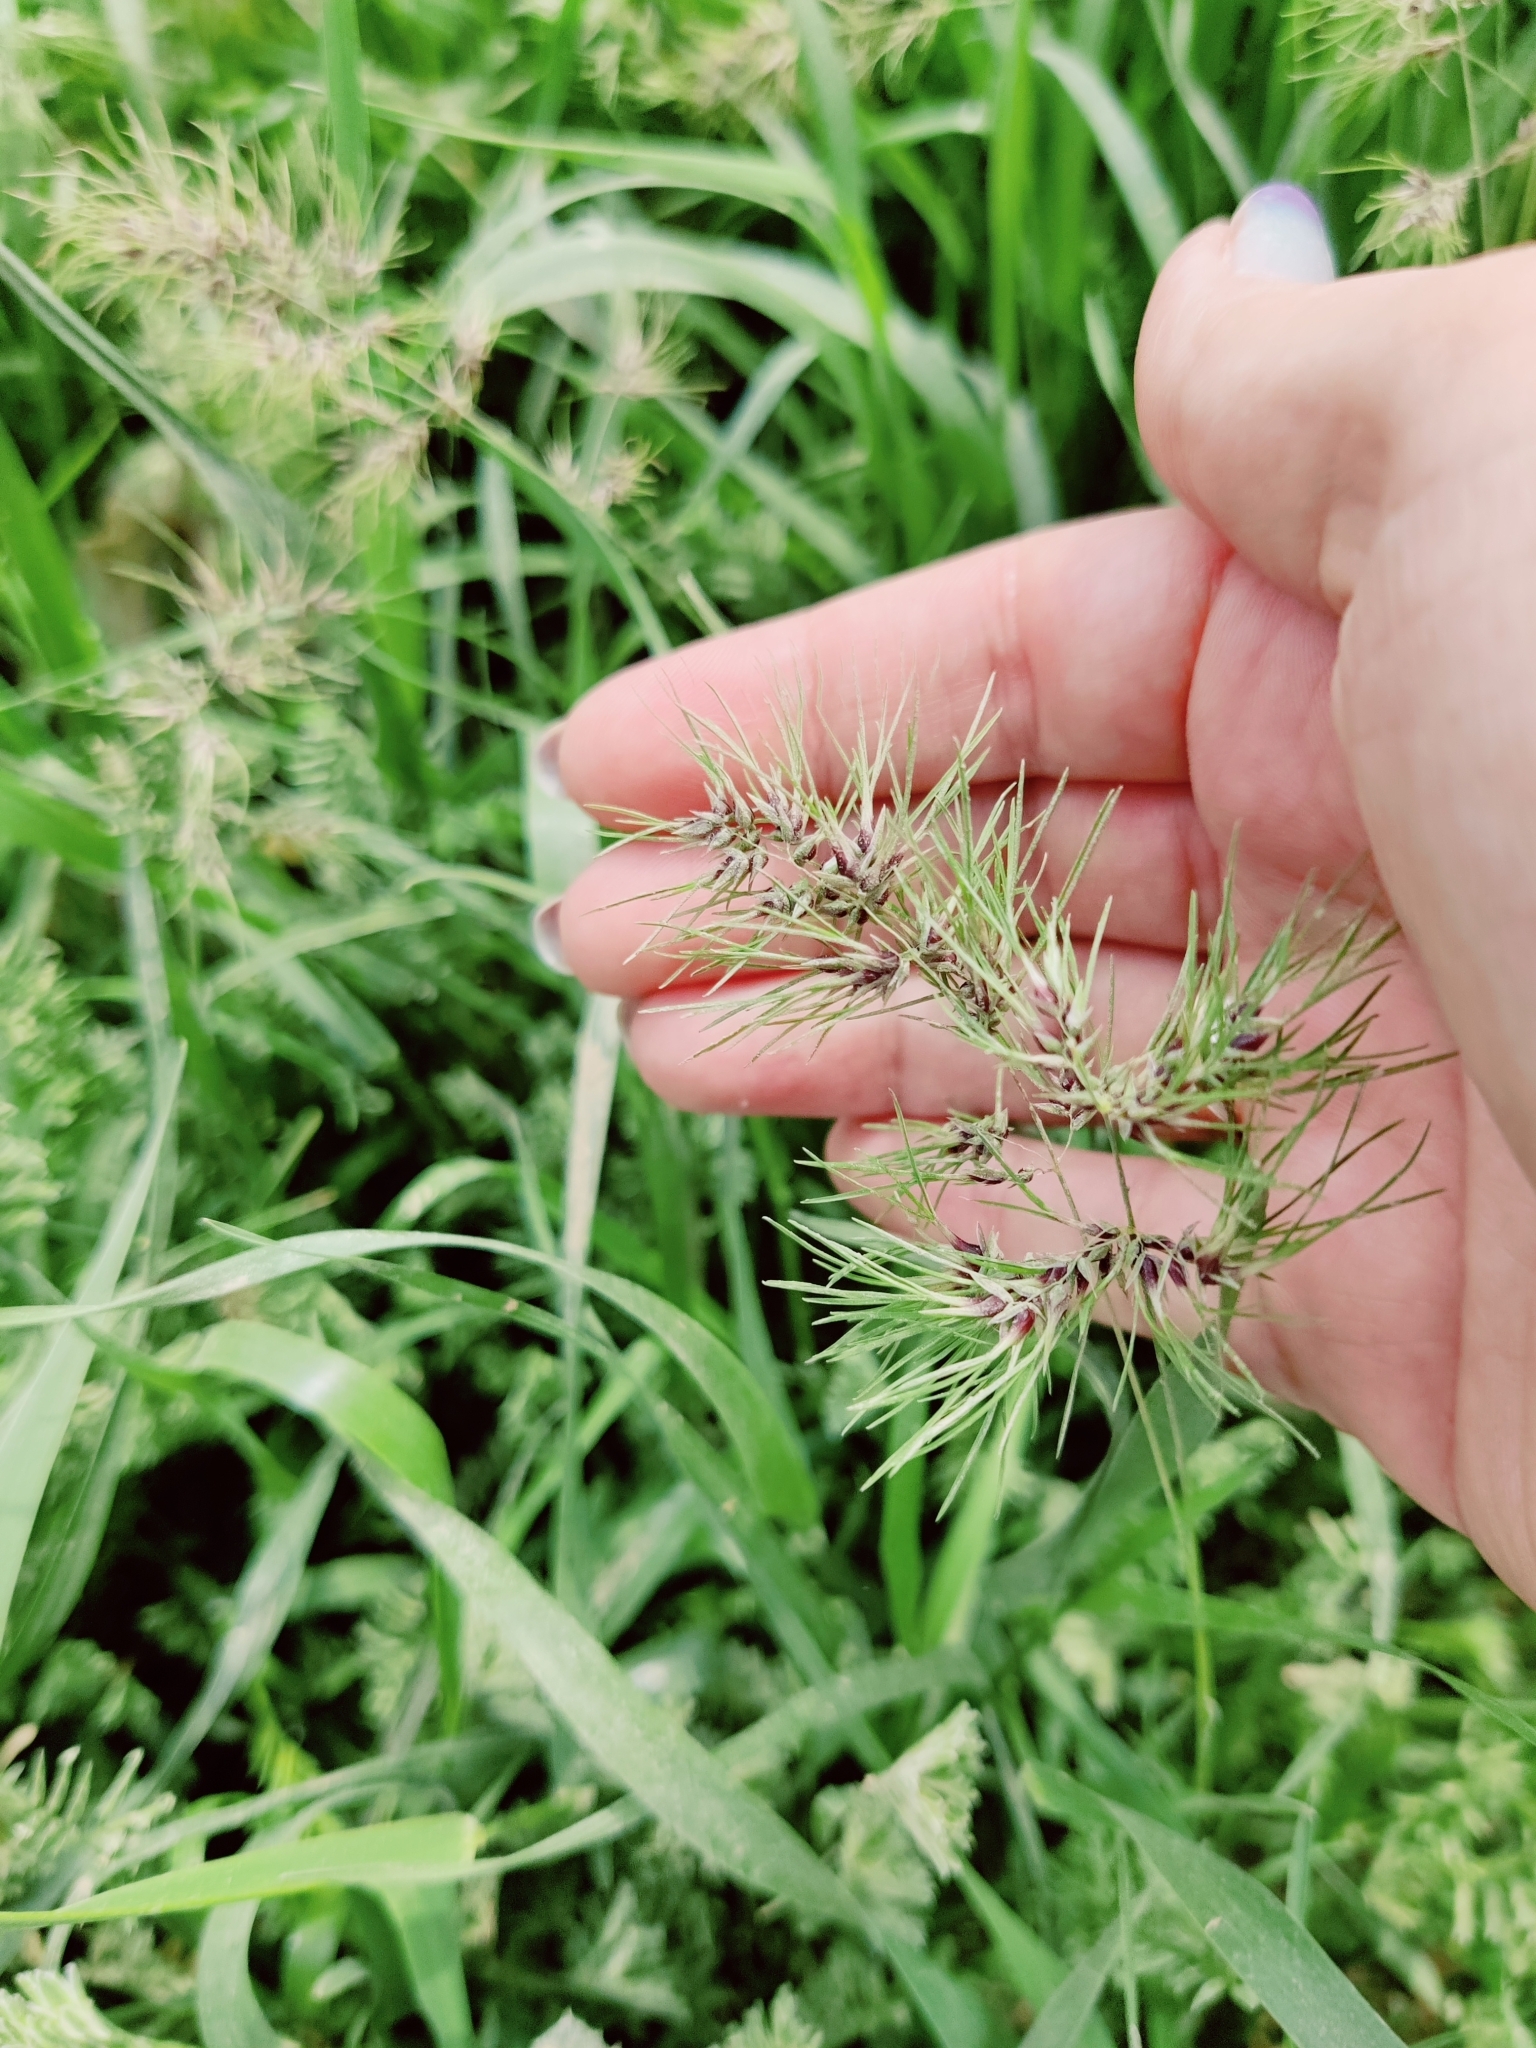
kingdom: Plantae
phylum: Tracheophyta
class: Liliopsida
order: Poales
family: Poaceae
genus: Poa
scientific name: Poa bulbosa
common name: Bulbous bluegrass
